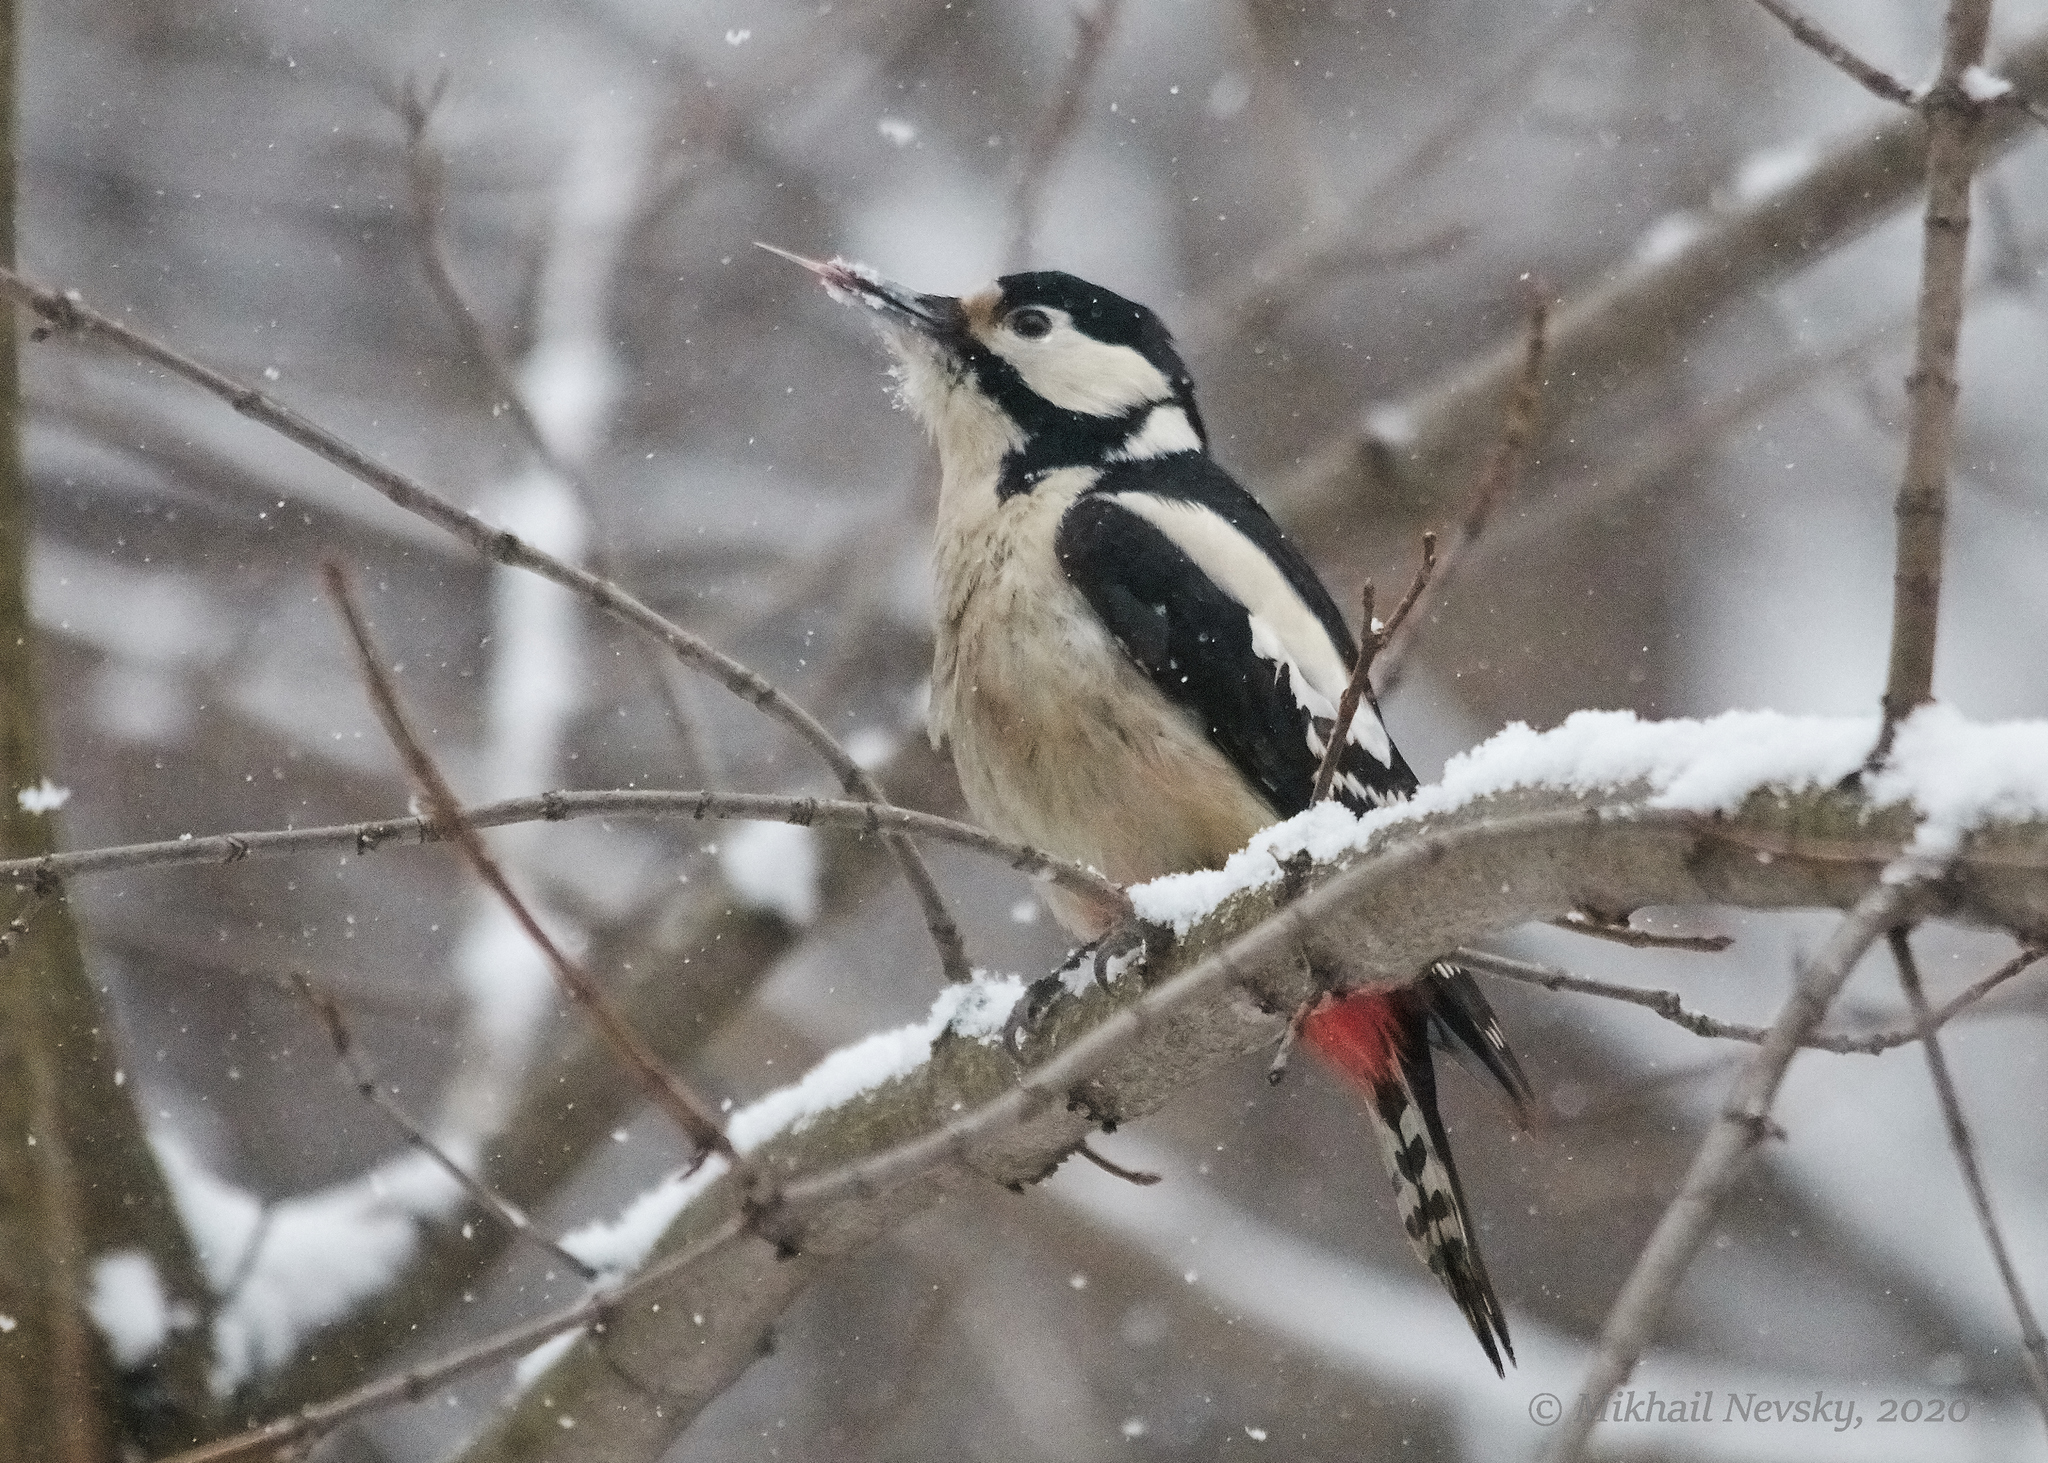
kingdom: Animalia
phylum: Chordata
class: Aves
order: Piciformes
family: Picidae
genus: Dendrocopos
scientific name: Dendrocopos major
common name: Great spotted woodpecker
